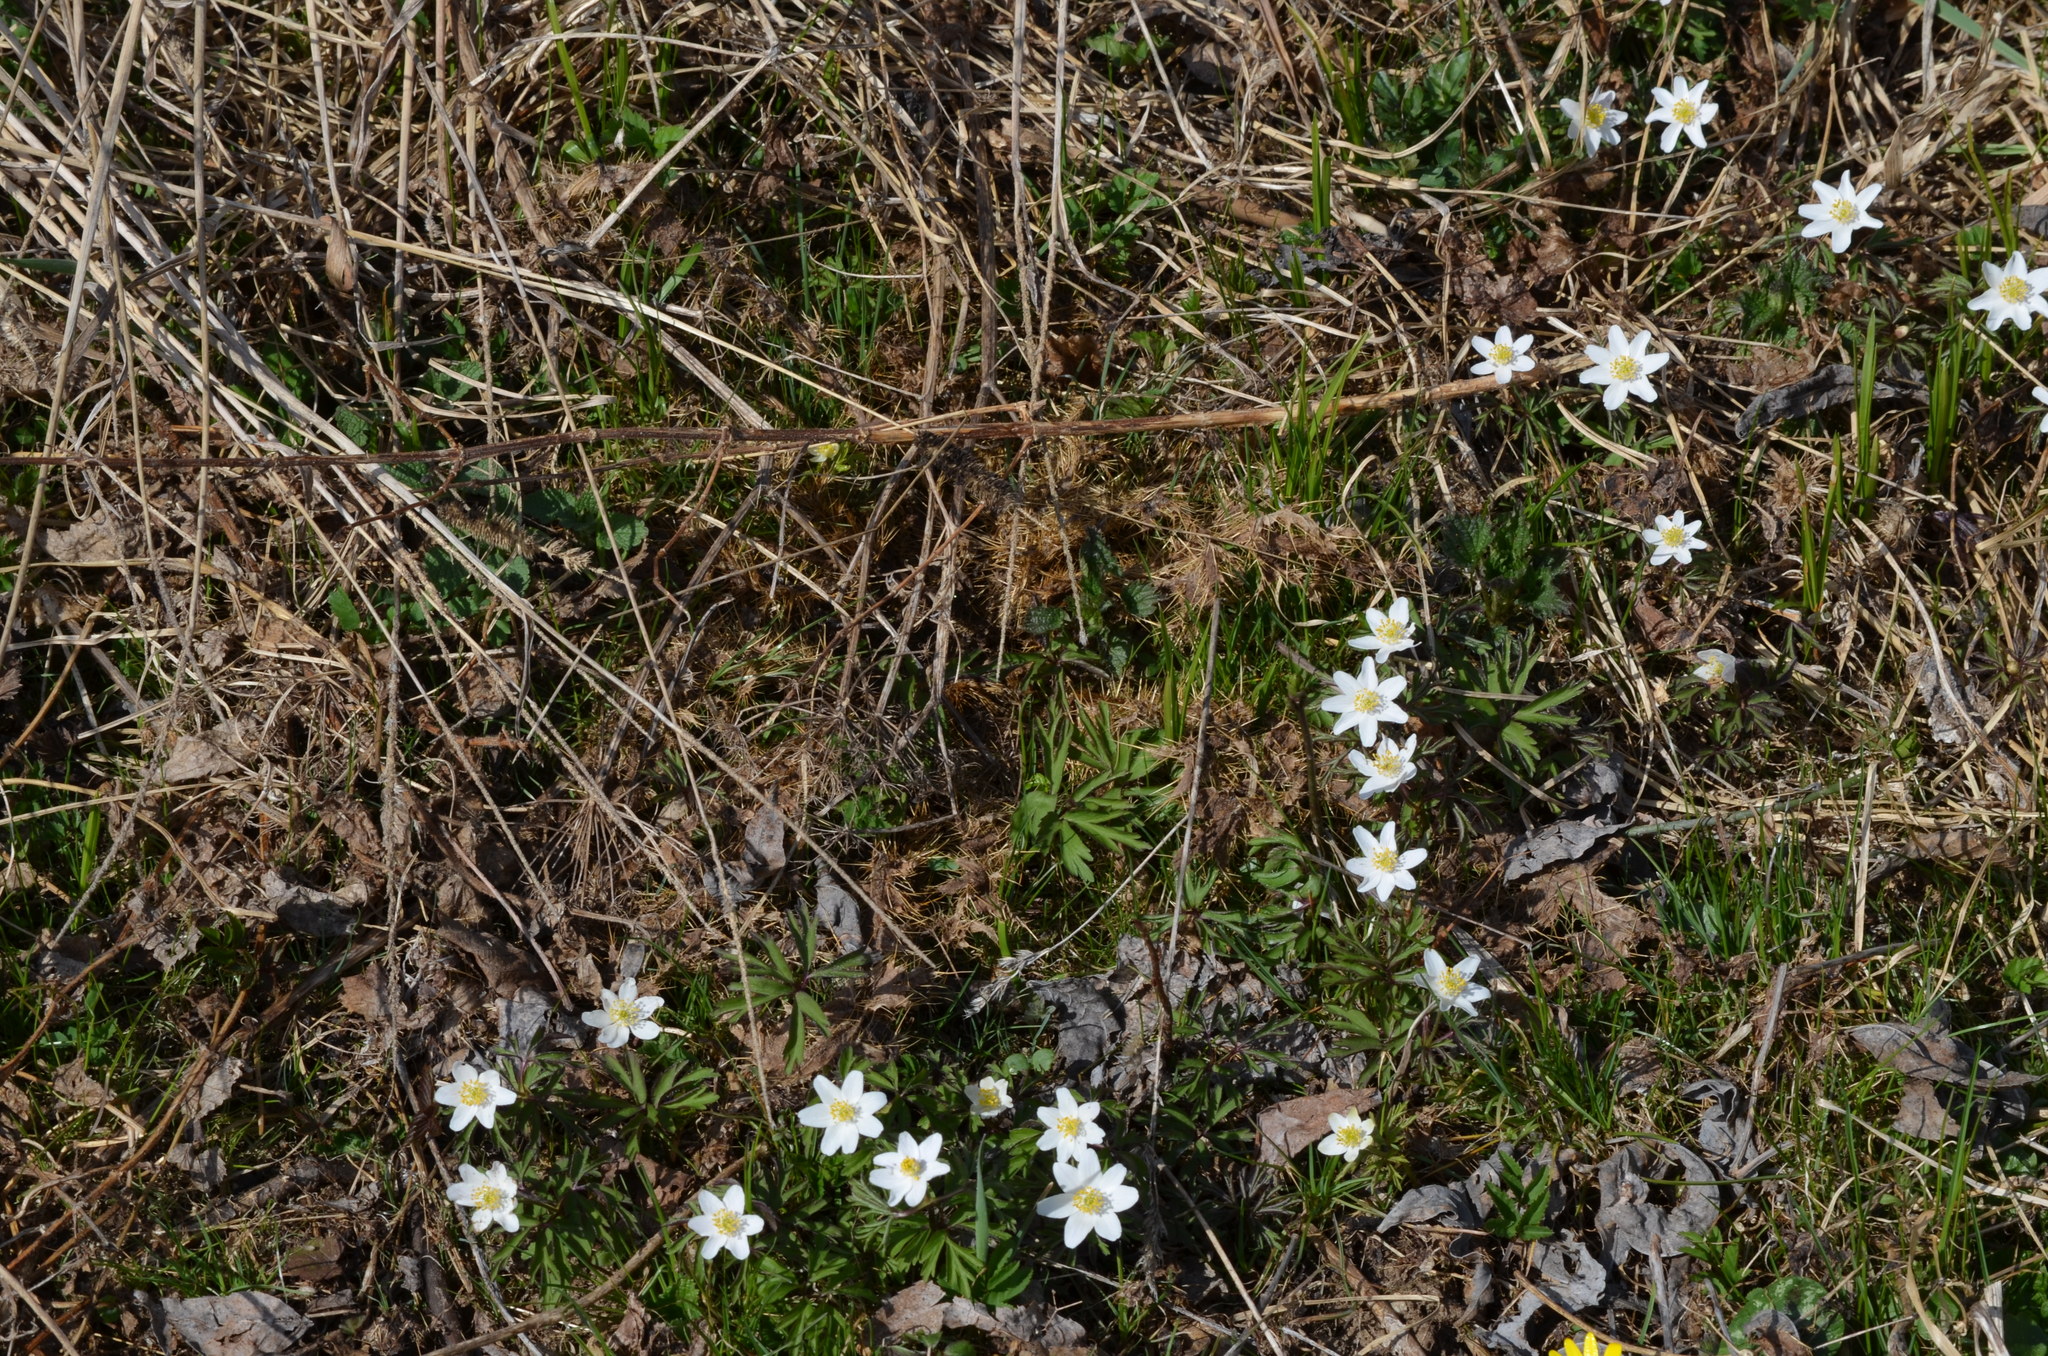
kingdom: Plantae
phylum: Tracheophyta
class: Magnoliopsida
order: Ranunculales
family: Ranunculaceae
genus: Anemone
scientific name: Anemone nemorosa
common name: Wood anemone
